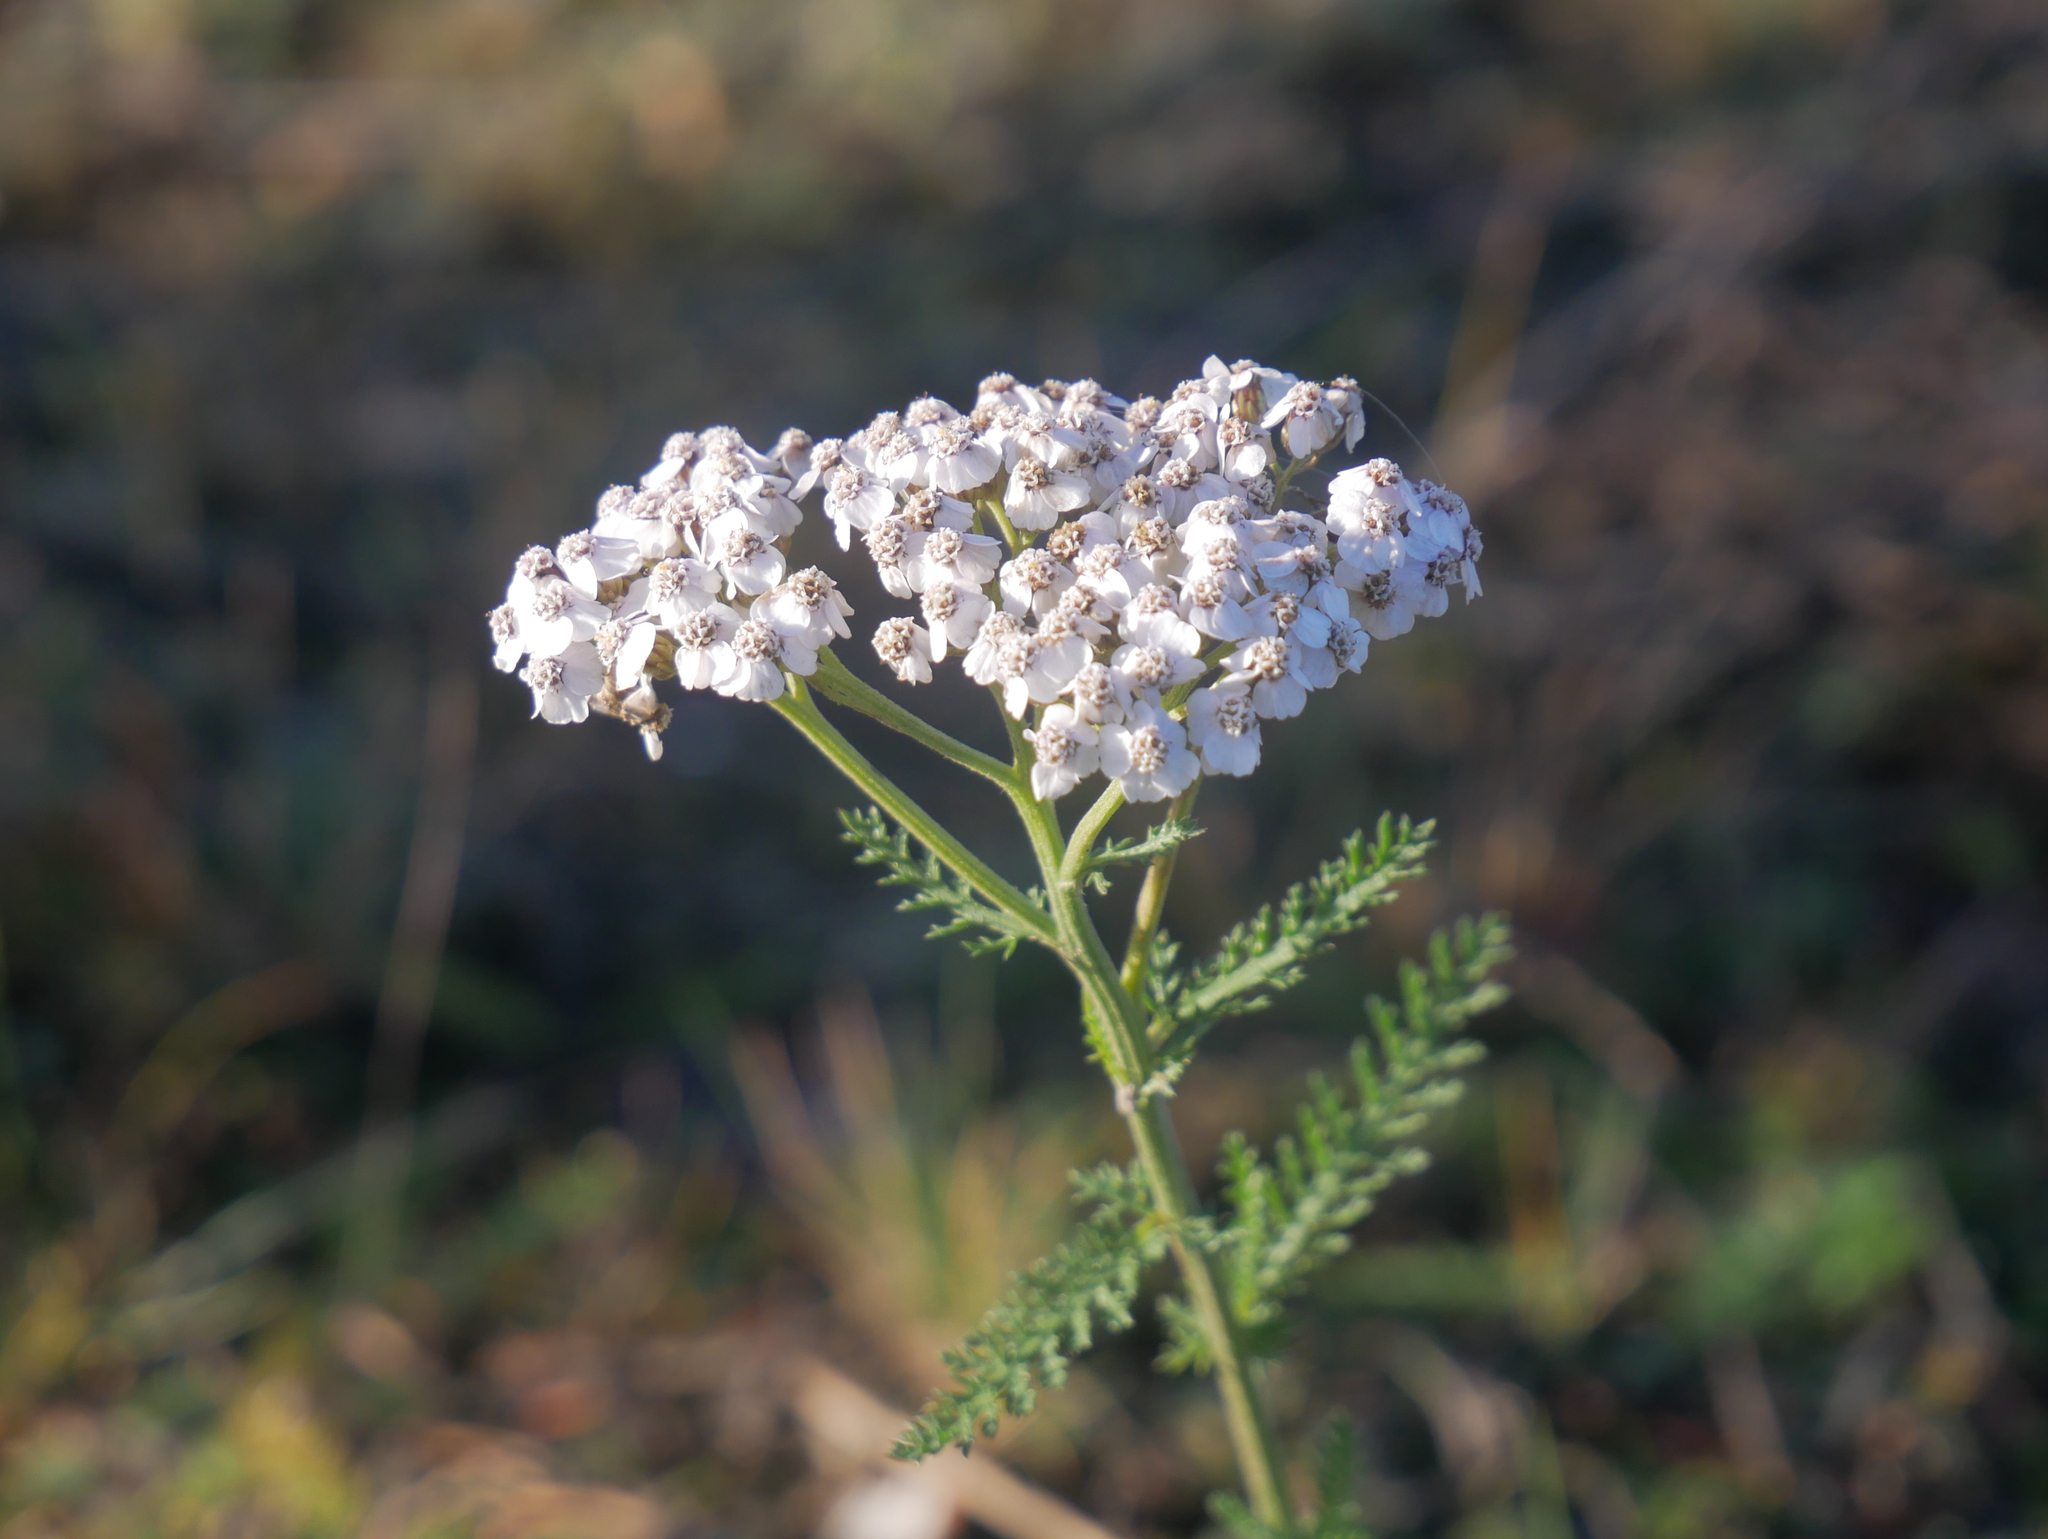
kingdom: Plantae
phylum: Tracheophyta
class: Magnoliopsida
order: Asterales
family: Asteraceae
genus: Achillea
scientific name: Achillea millefolium
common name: Yarrow
